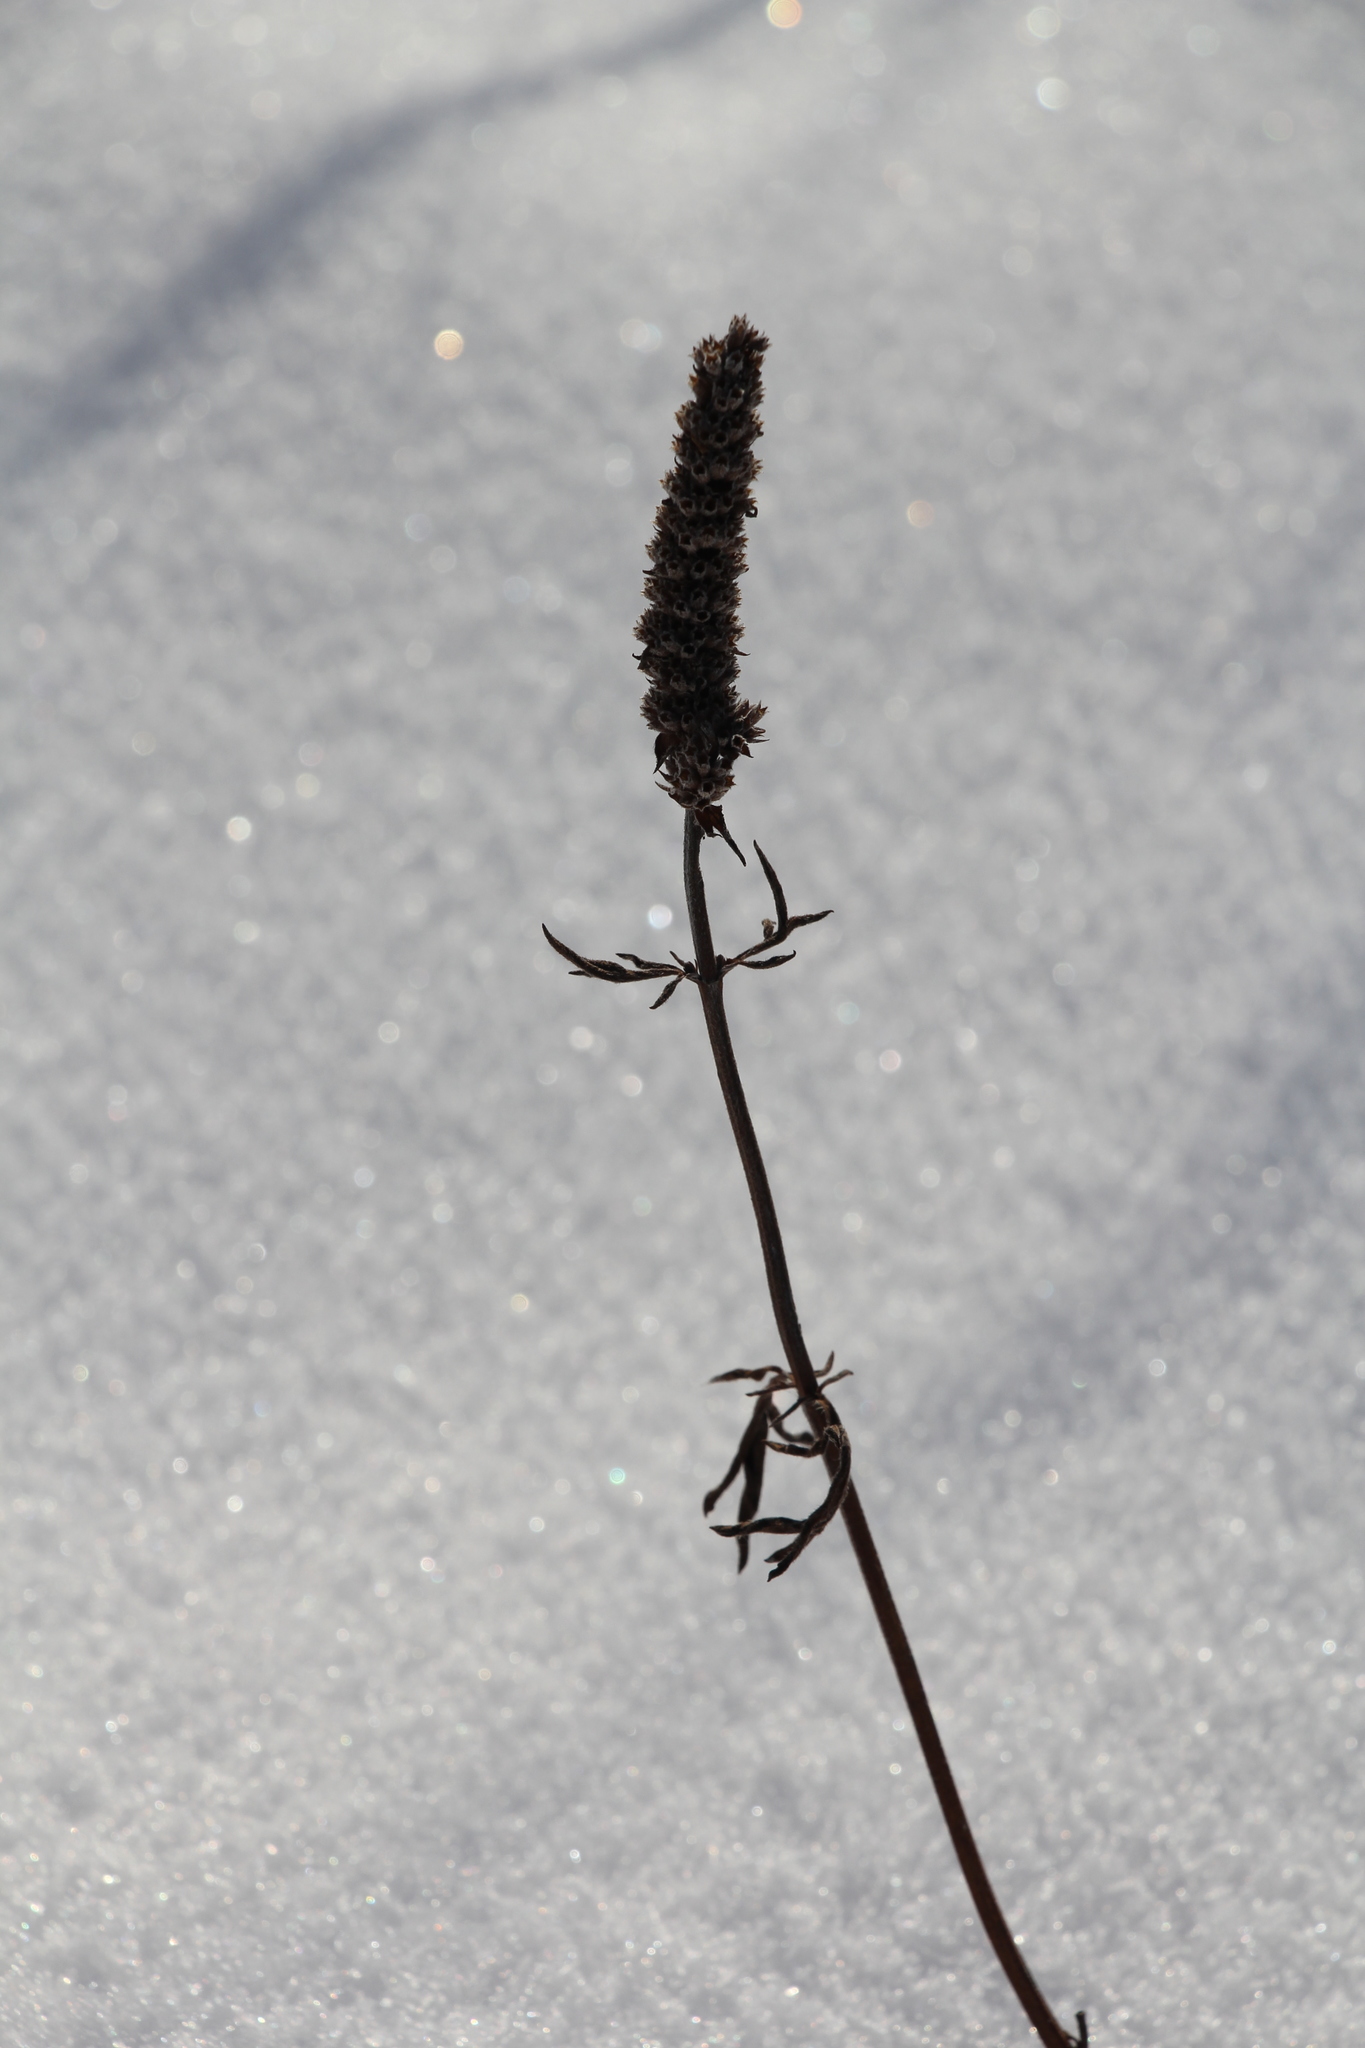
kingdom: Plantae
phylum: Tracheophyta
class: Magnoliopsida
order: Lamiales
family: Lamiaceae
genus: Nepeta
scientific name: Nepeta multifida
